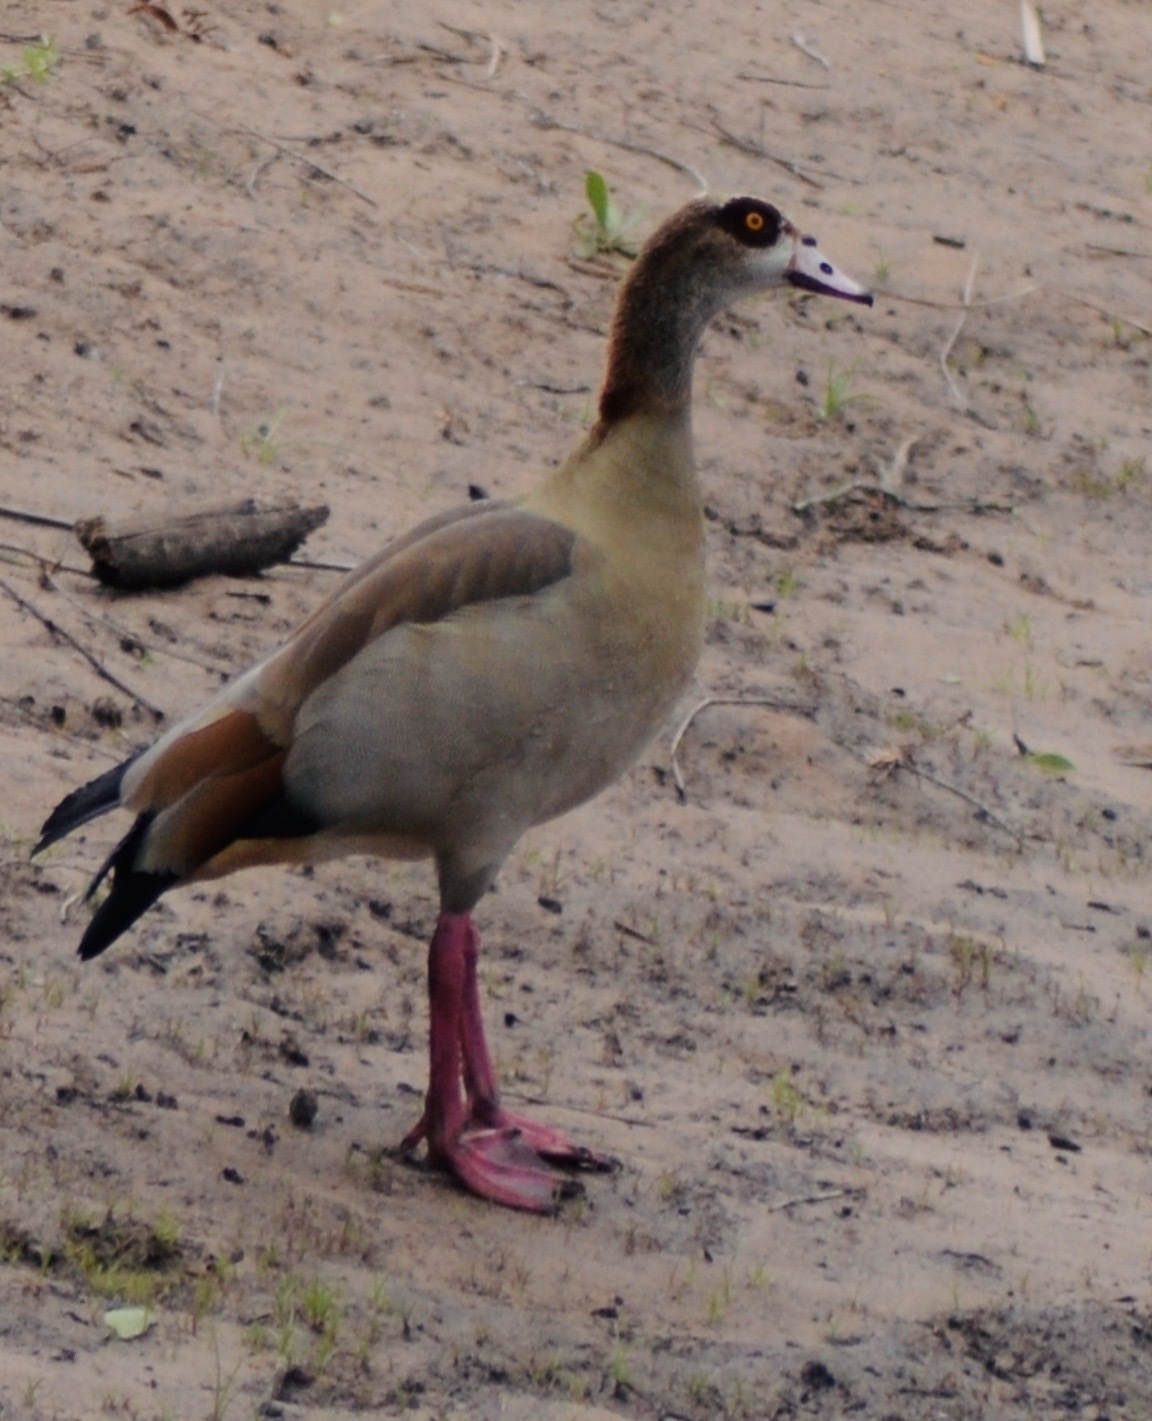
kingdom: Animalia
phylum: Chordata
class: Aves
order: Anseriformes
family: Anatidae
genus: Alopochen
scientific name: Alopochen aegyptiaca
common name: Egyptian goose
